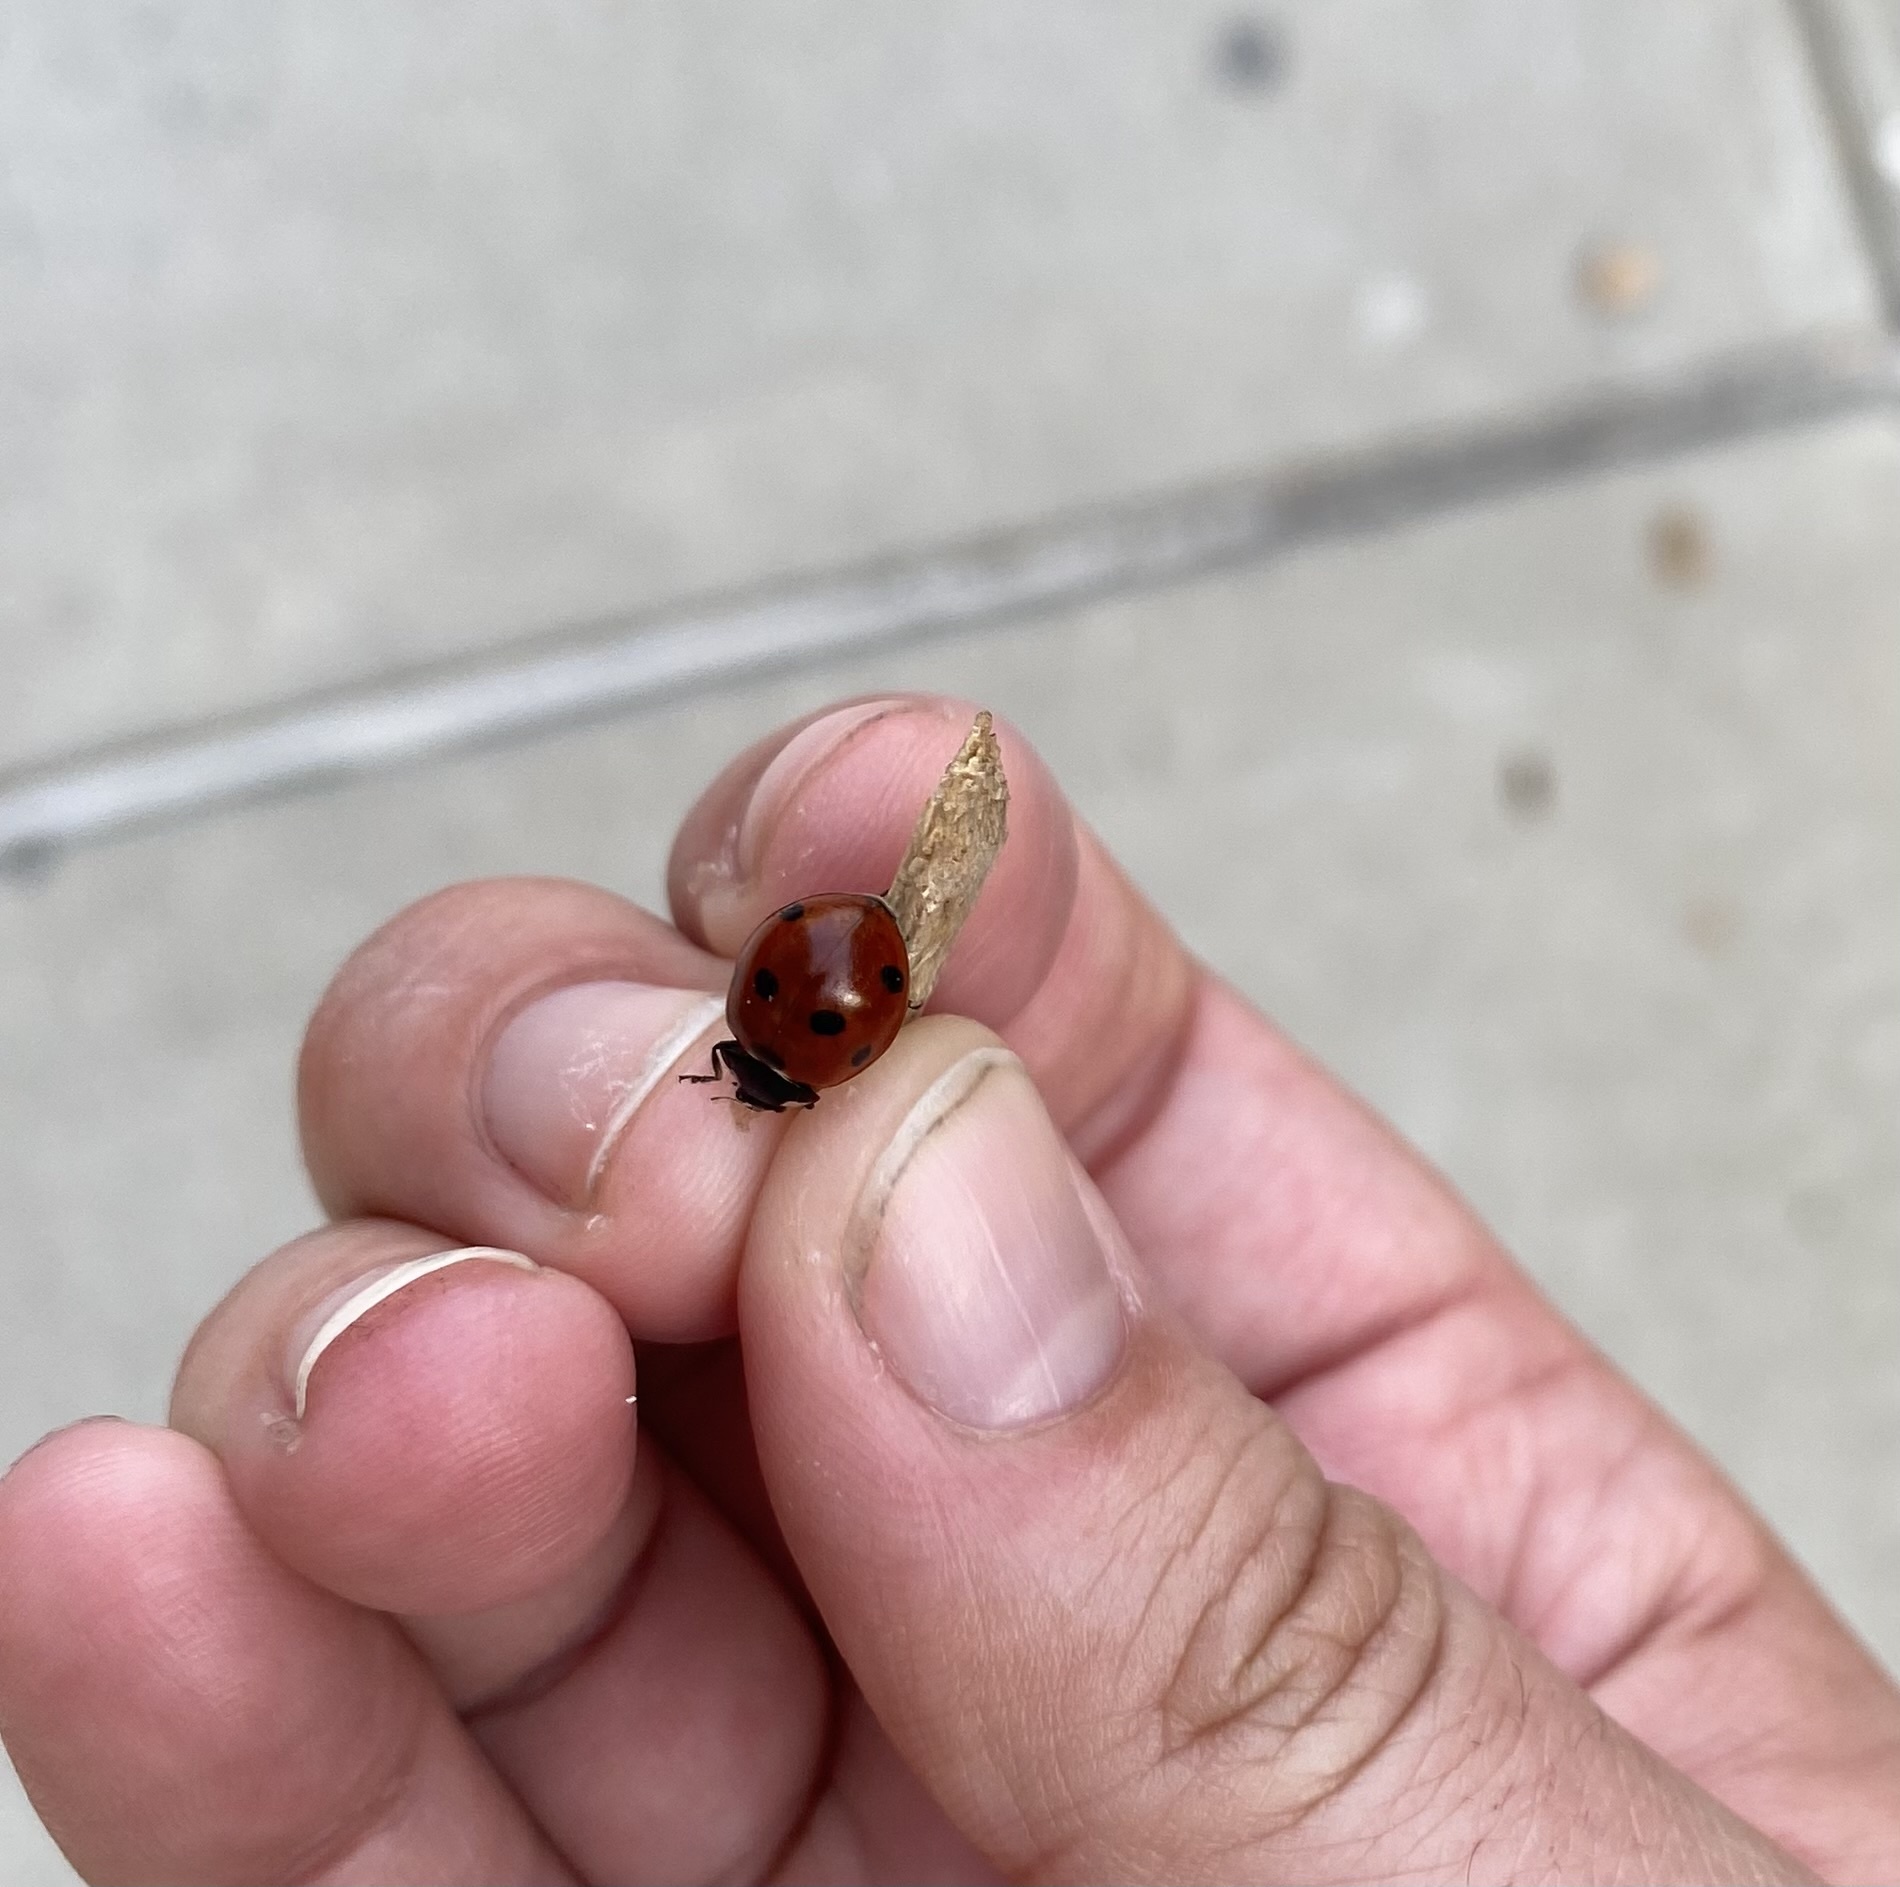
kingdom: Animalia
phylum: Arthropoda
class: Insecta
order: Coleoptera
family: Coccinellidae
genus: Coccinella
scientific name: Coccinella septempunctata
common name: Sevenspotted lady beetle
